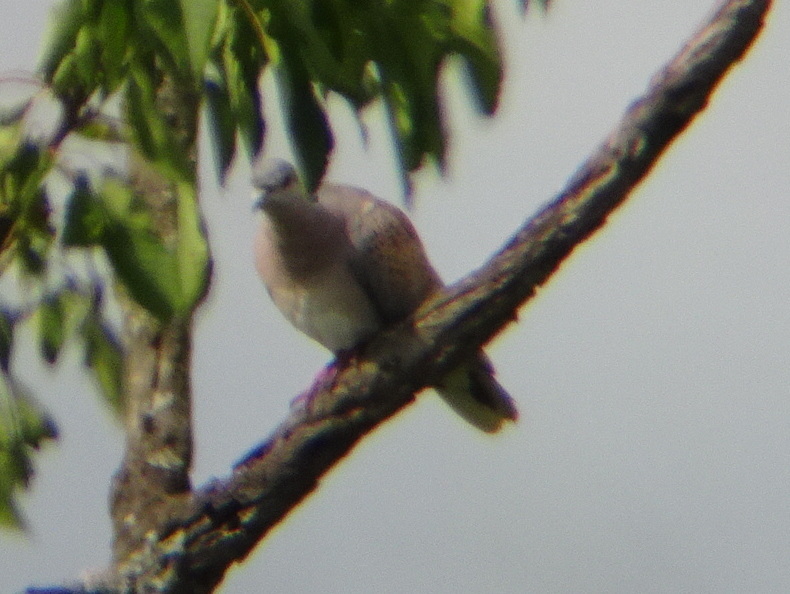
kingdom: Animalia
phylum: Chordata
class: Aves
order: Columbiformes
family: Columbidae
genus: Streptopelia
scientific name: Streptopelia turtur
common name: European turtle dove
